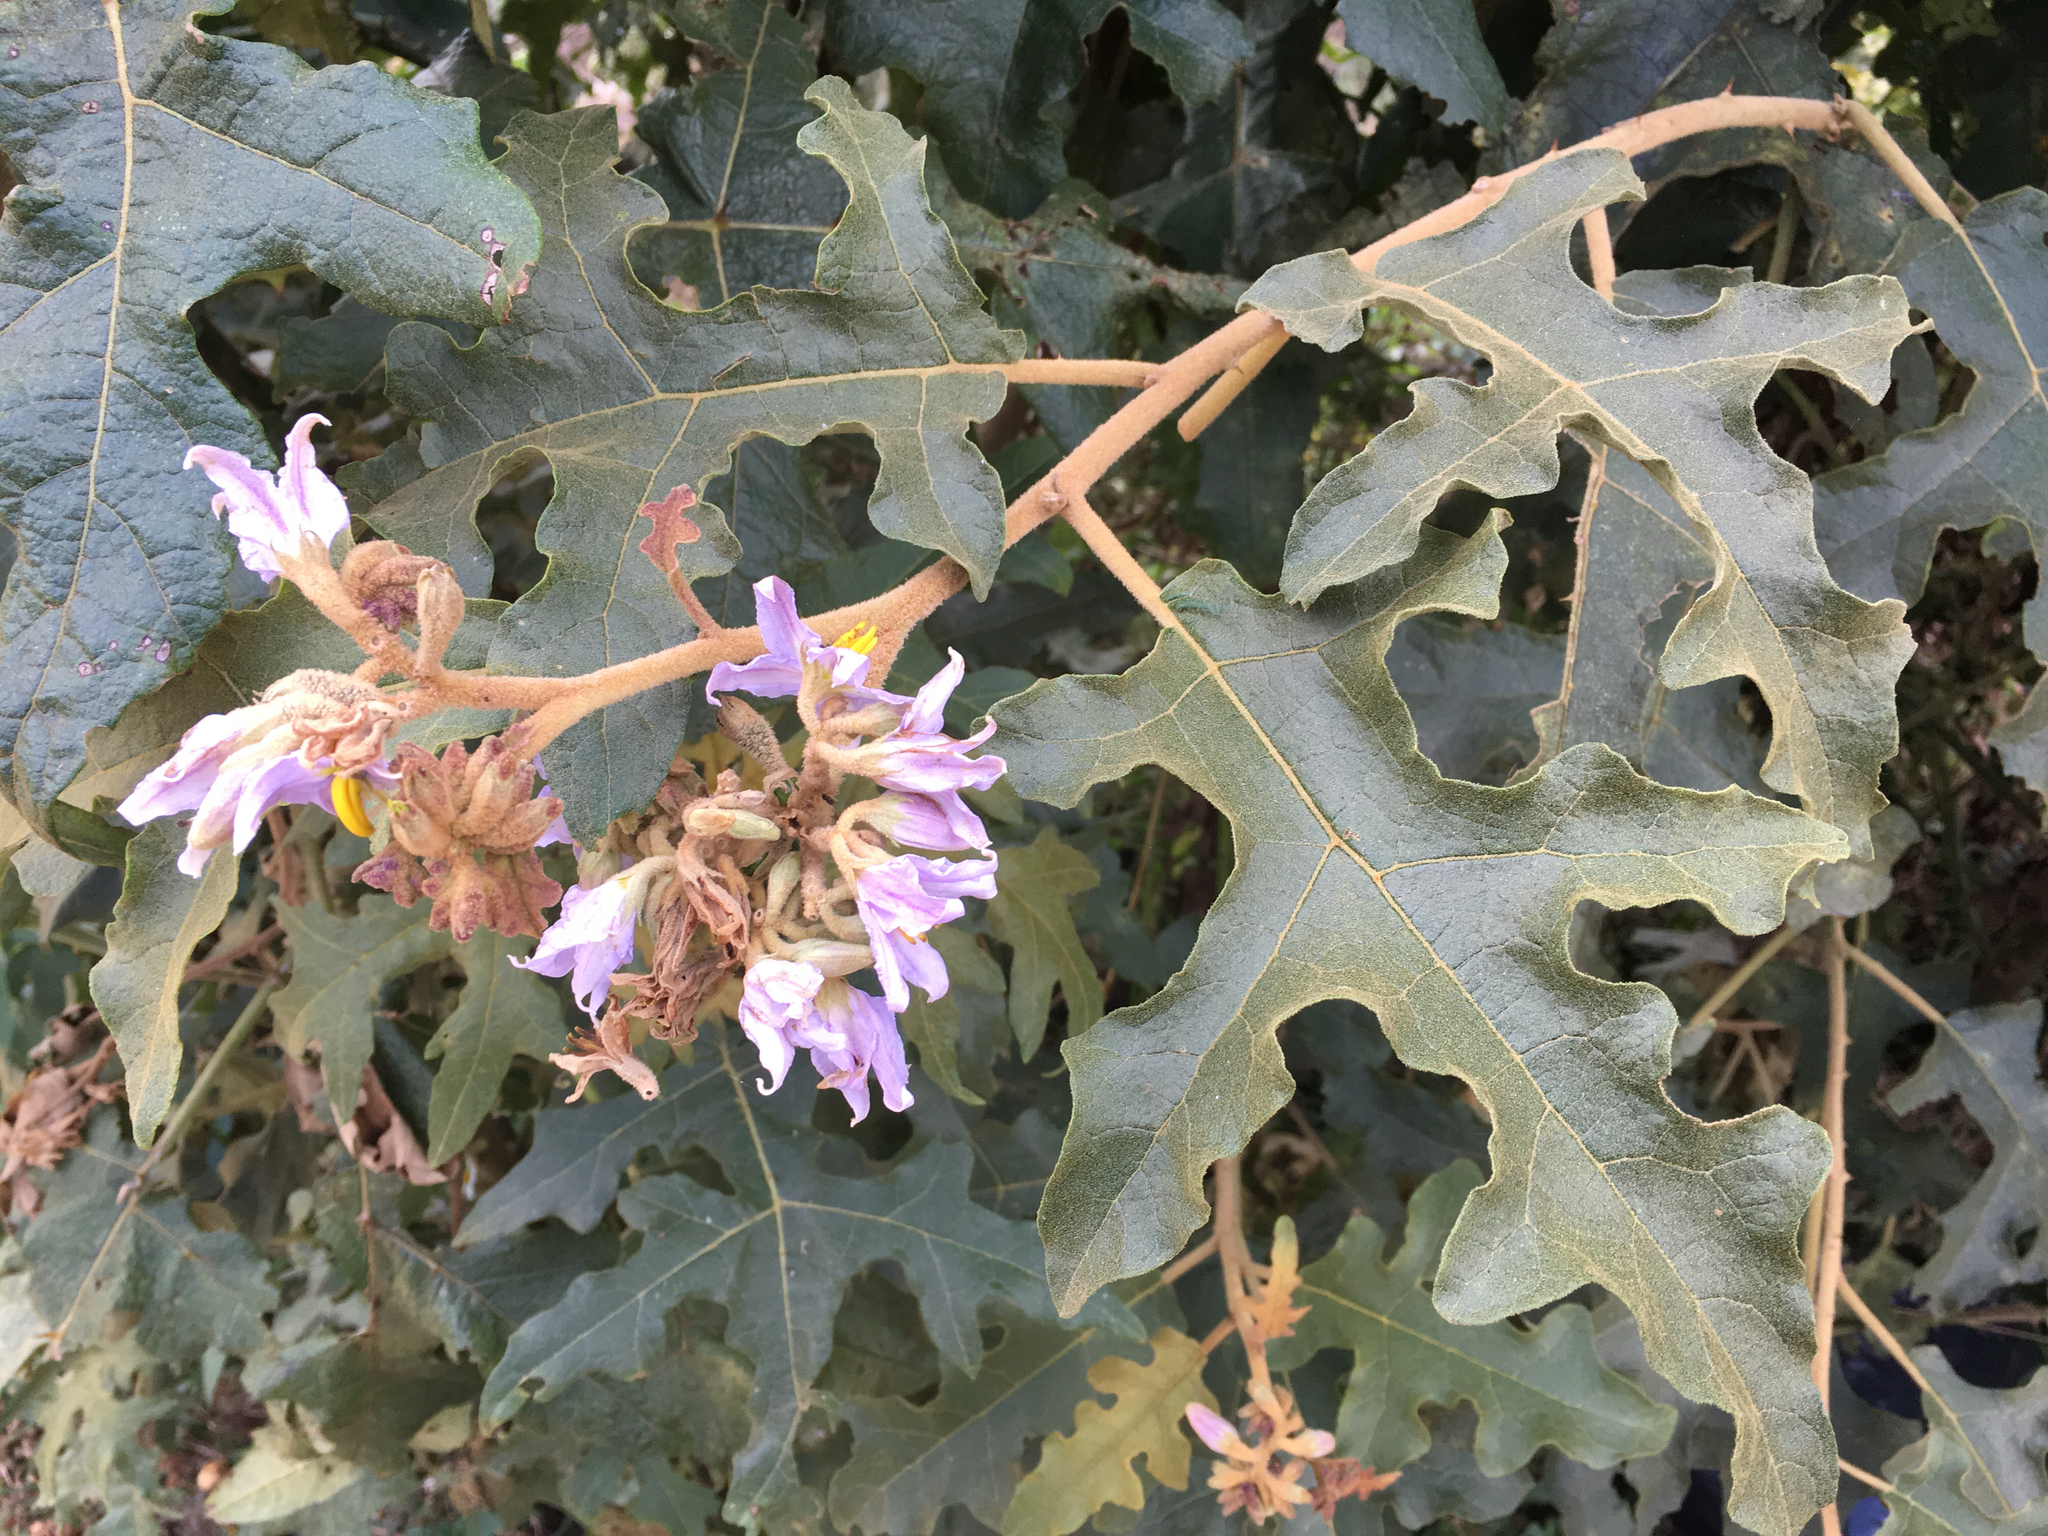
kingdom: Plantae
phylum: Tracheophyta
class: Magnoliopsida
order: Solanales
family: Solanaceae
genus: Solanum
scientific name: Solanum chrysotrichum
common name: Nightshade
